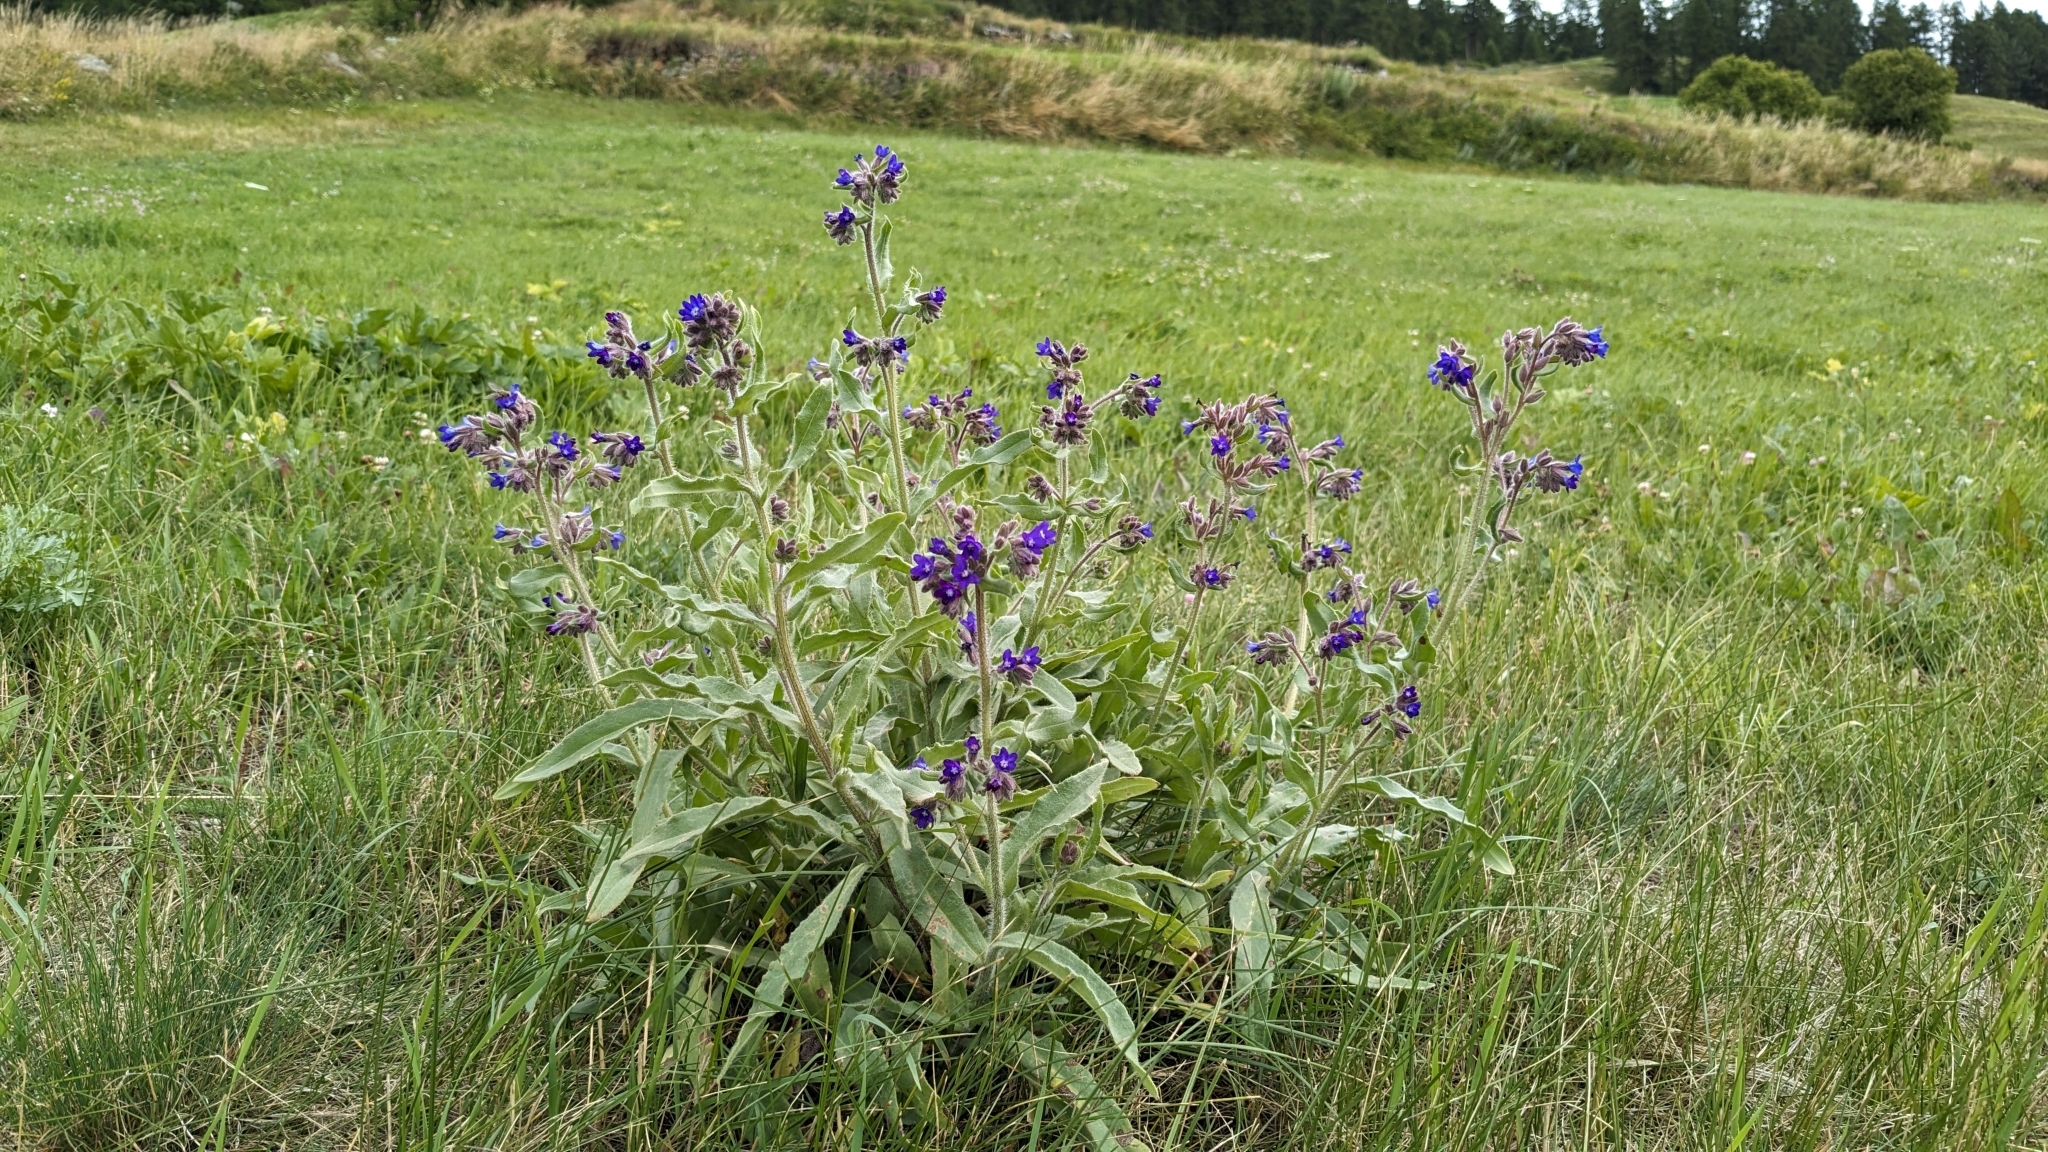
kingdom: Plantae
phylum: Tracheophyta
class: Magnoliopsida
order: Boraginales
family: Boraginaceae
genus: Anchusa
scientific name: Anchusa officinalis
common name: Alkanet
